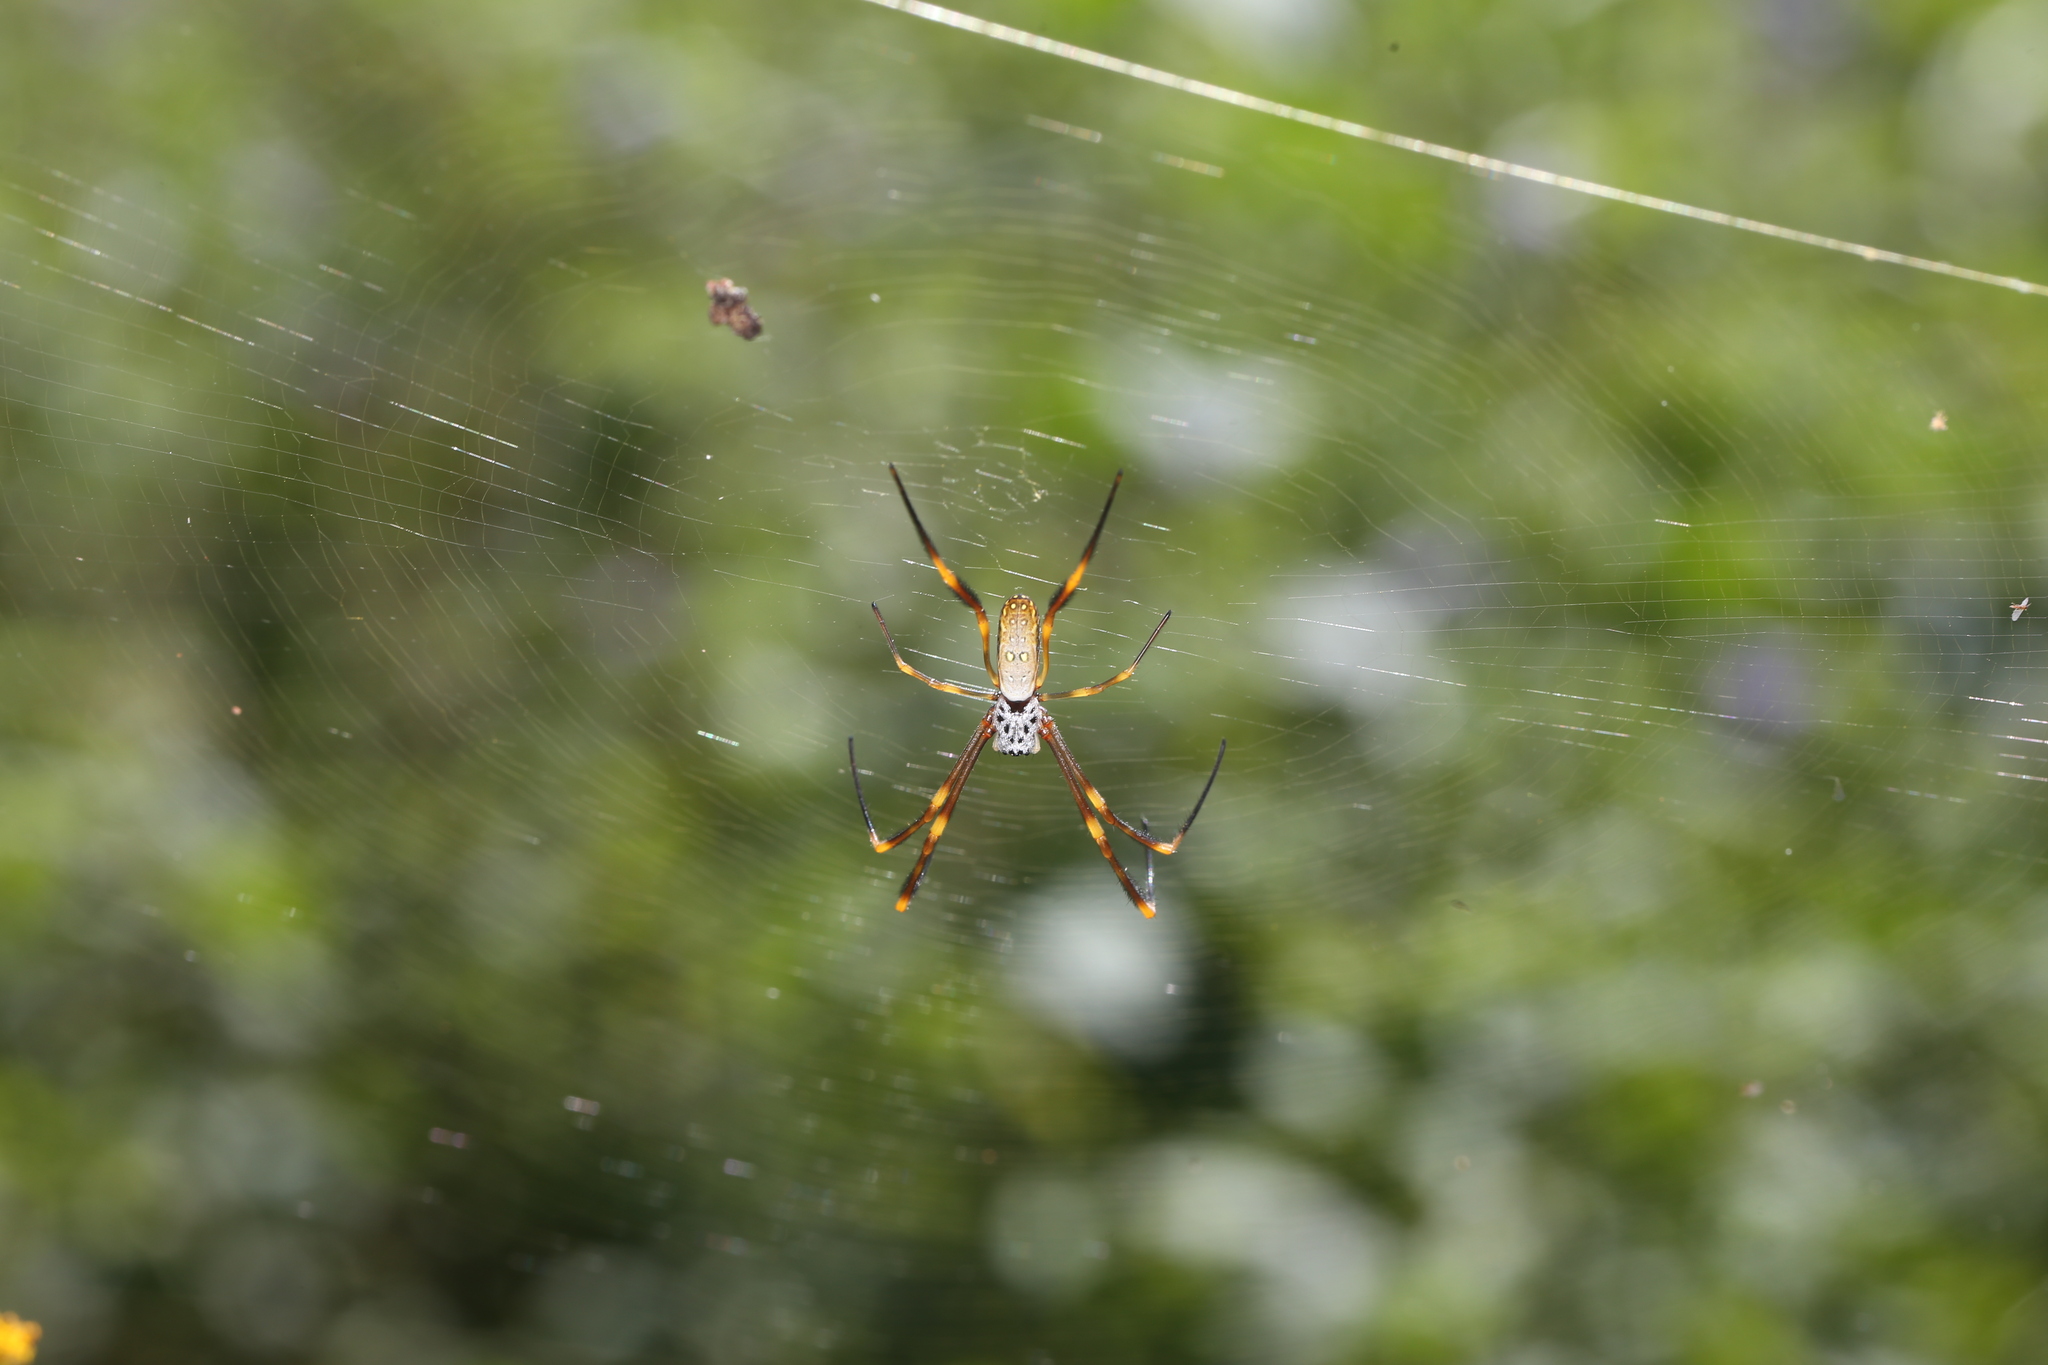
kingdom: Animalia
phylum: Arthropoda
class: Arachnida
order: Araneae
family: Araneidae
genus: Trichonephila
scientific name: Trichonephila plumipes
